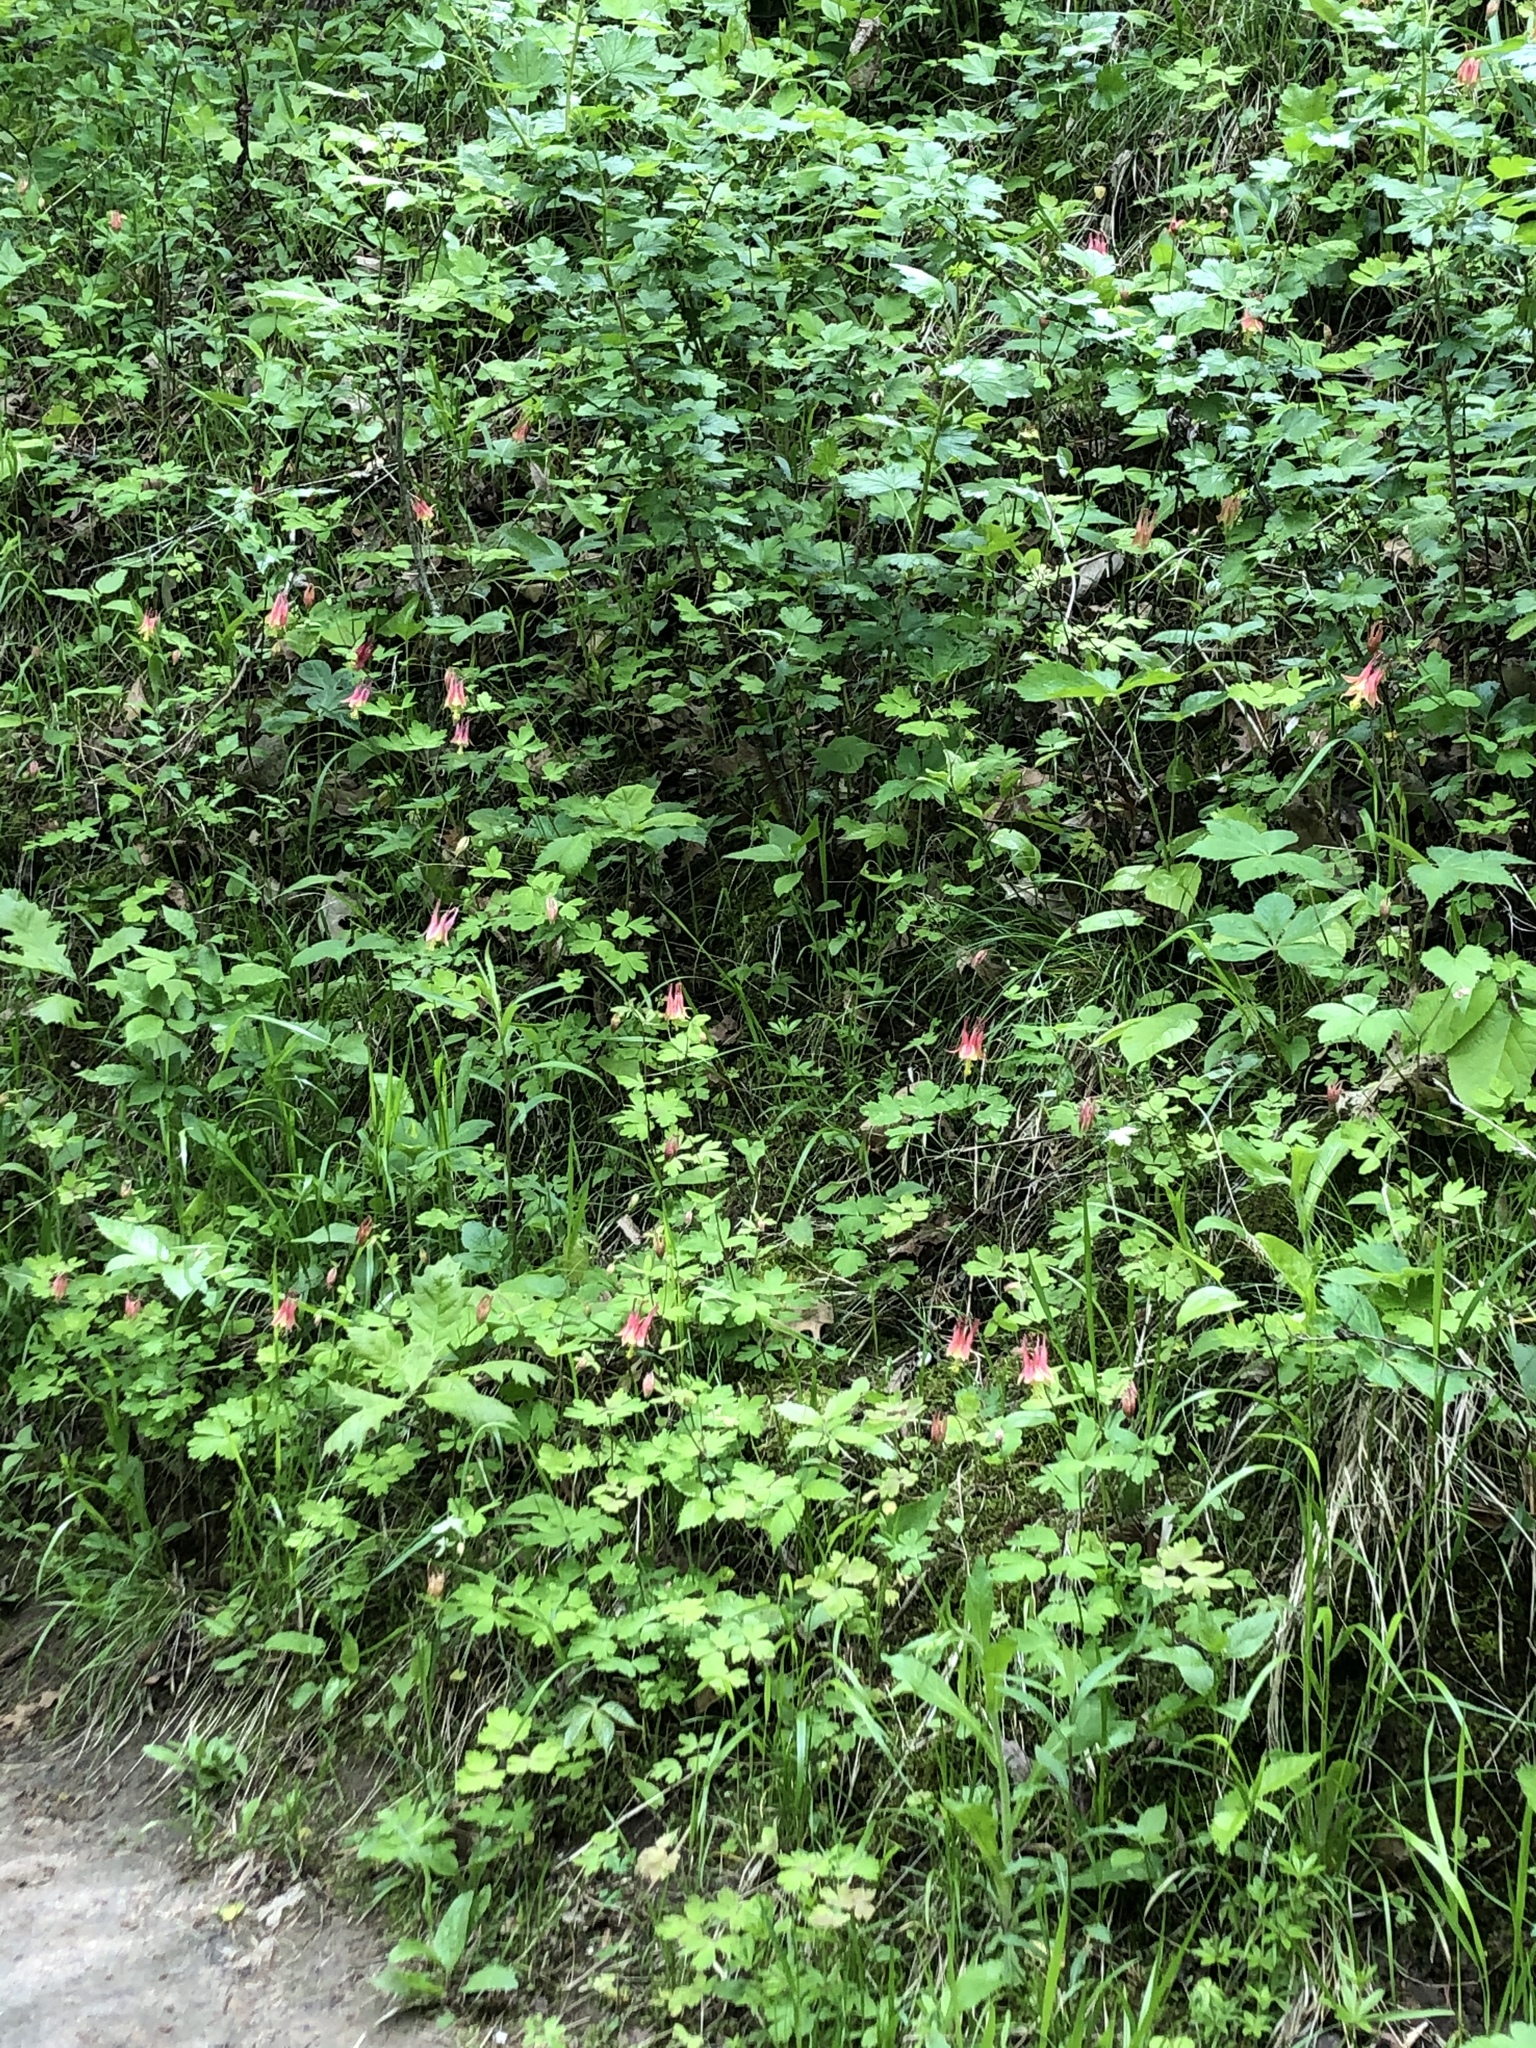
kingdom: Plantae
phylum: Tracheophyta
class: Magnoliopsida
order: Ranunculales
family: Ranunculaceae
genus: Aquilegia
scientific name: Aquilegia canadensis
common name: American columbine
